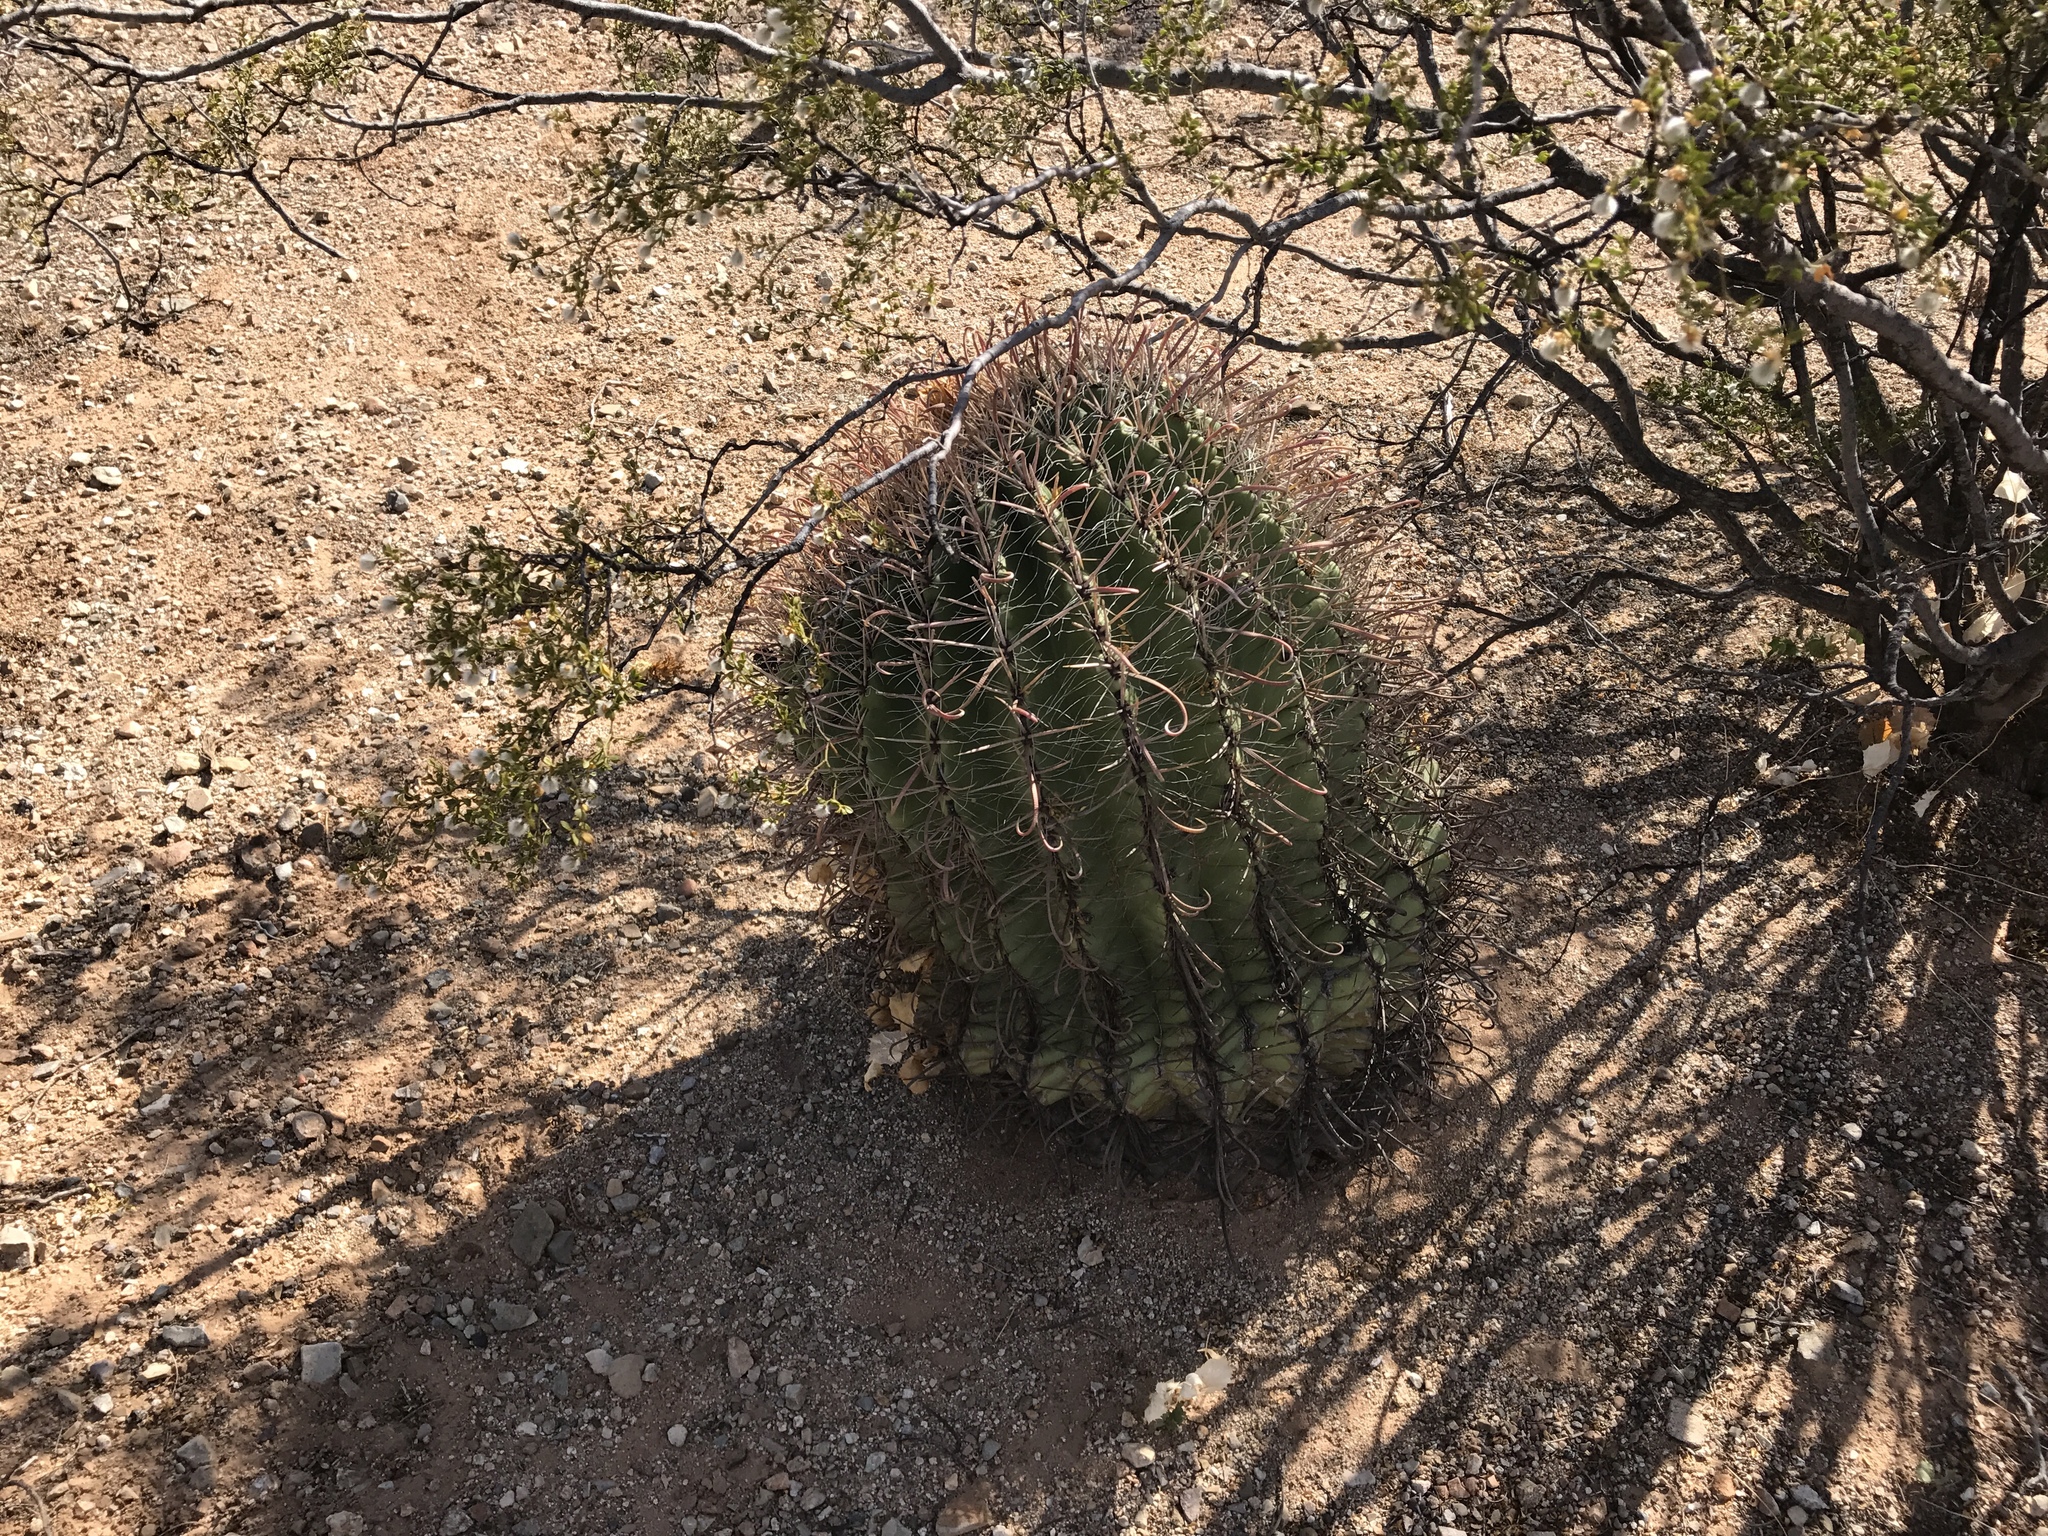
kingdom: Plantae
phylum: Tracheophyta
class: Magnoliopsida
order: Caryophyllales
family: Cactaceae
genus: Ferocactus
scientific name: Ferocactus wislizeni
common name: Candy barrel cactus
